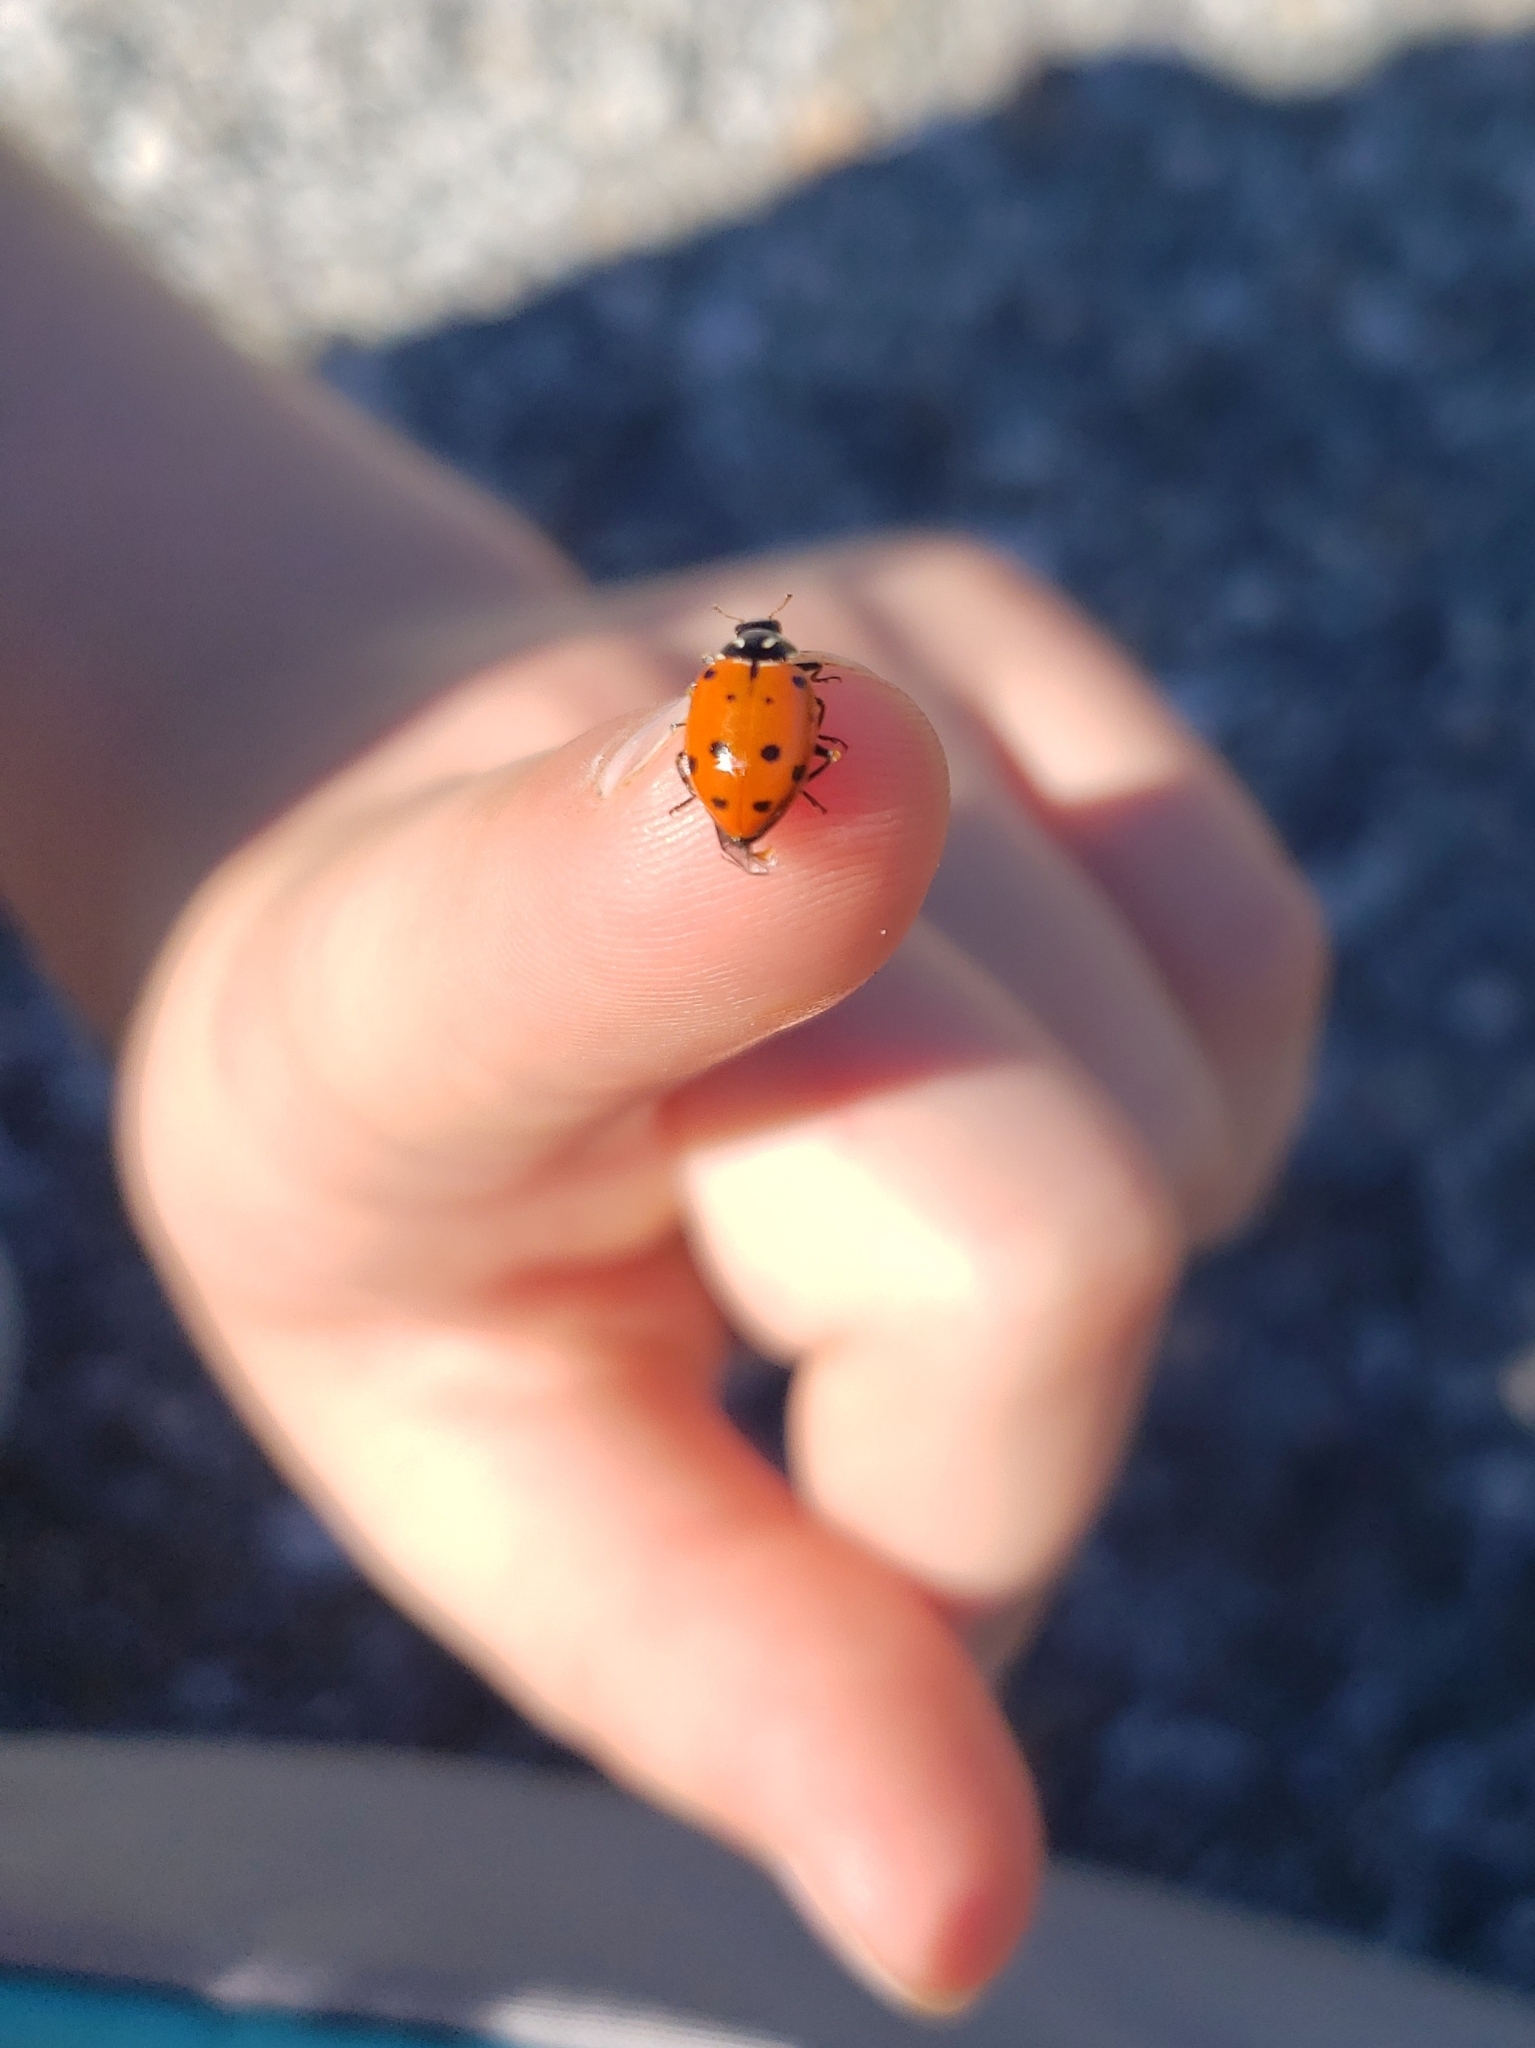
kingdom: Animalia
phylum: Arthropoda
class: Insecta
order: Coleoptera
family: Coccinellidae
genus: Hippodamia
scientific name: Hippodamia convergens
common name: Convergent lady beetle
